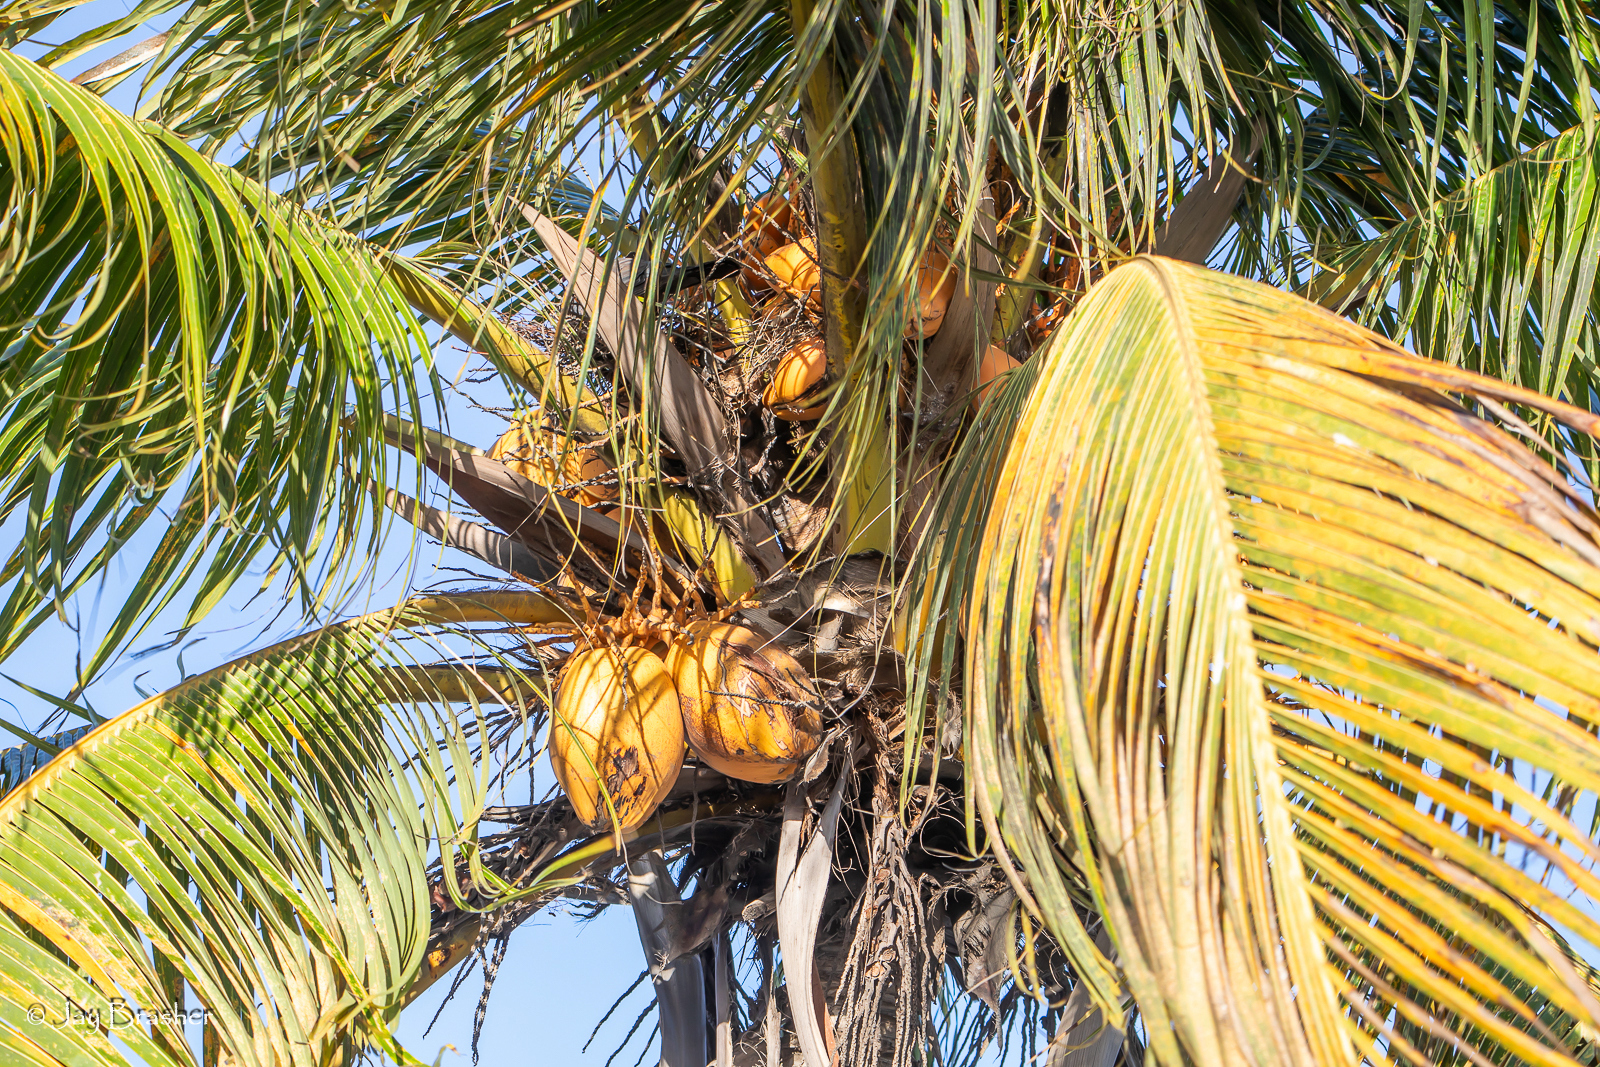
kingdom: Plantae
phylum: Tracheophyta
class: Liliopsida
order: Arecales
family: Arecaceae
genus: Cocos
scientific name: Cocos nucifera
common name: Coconut palm
